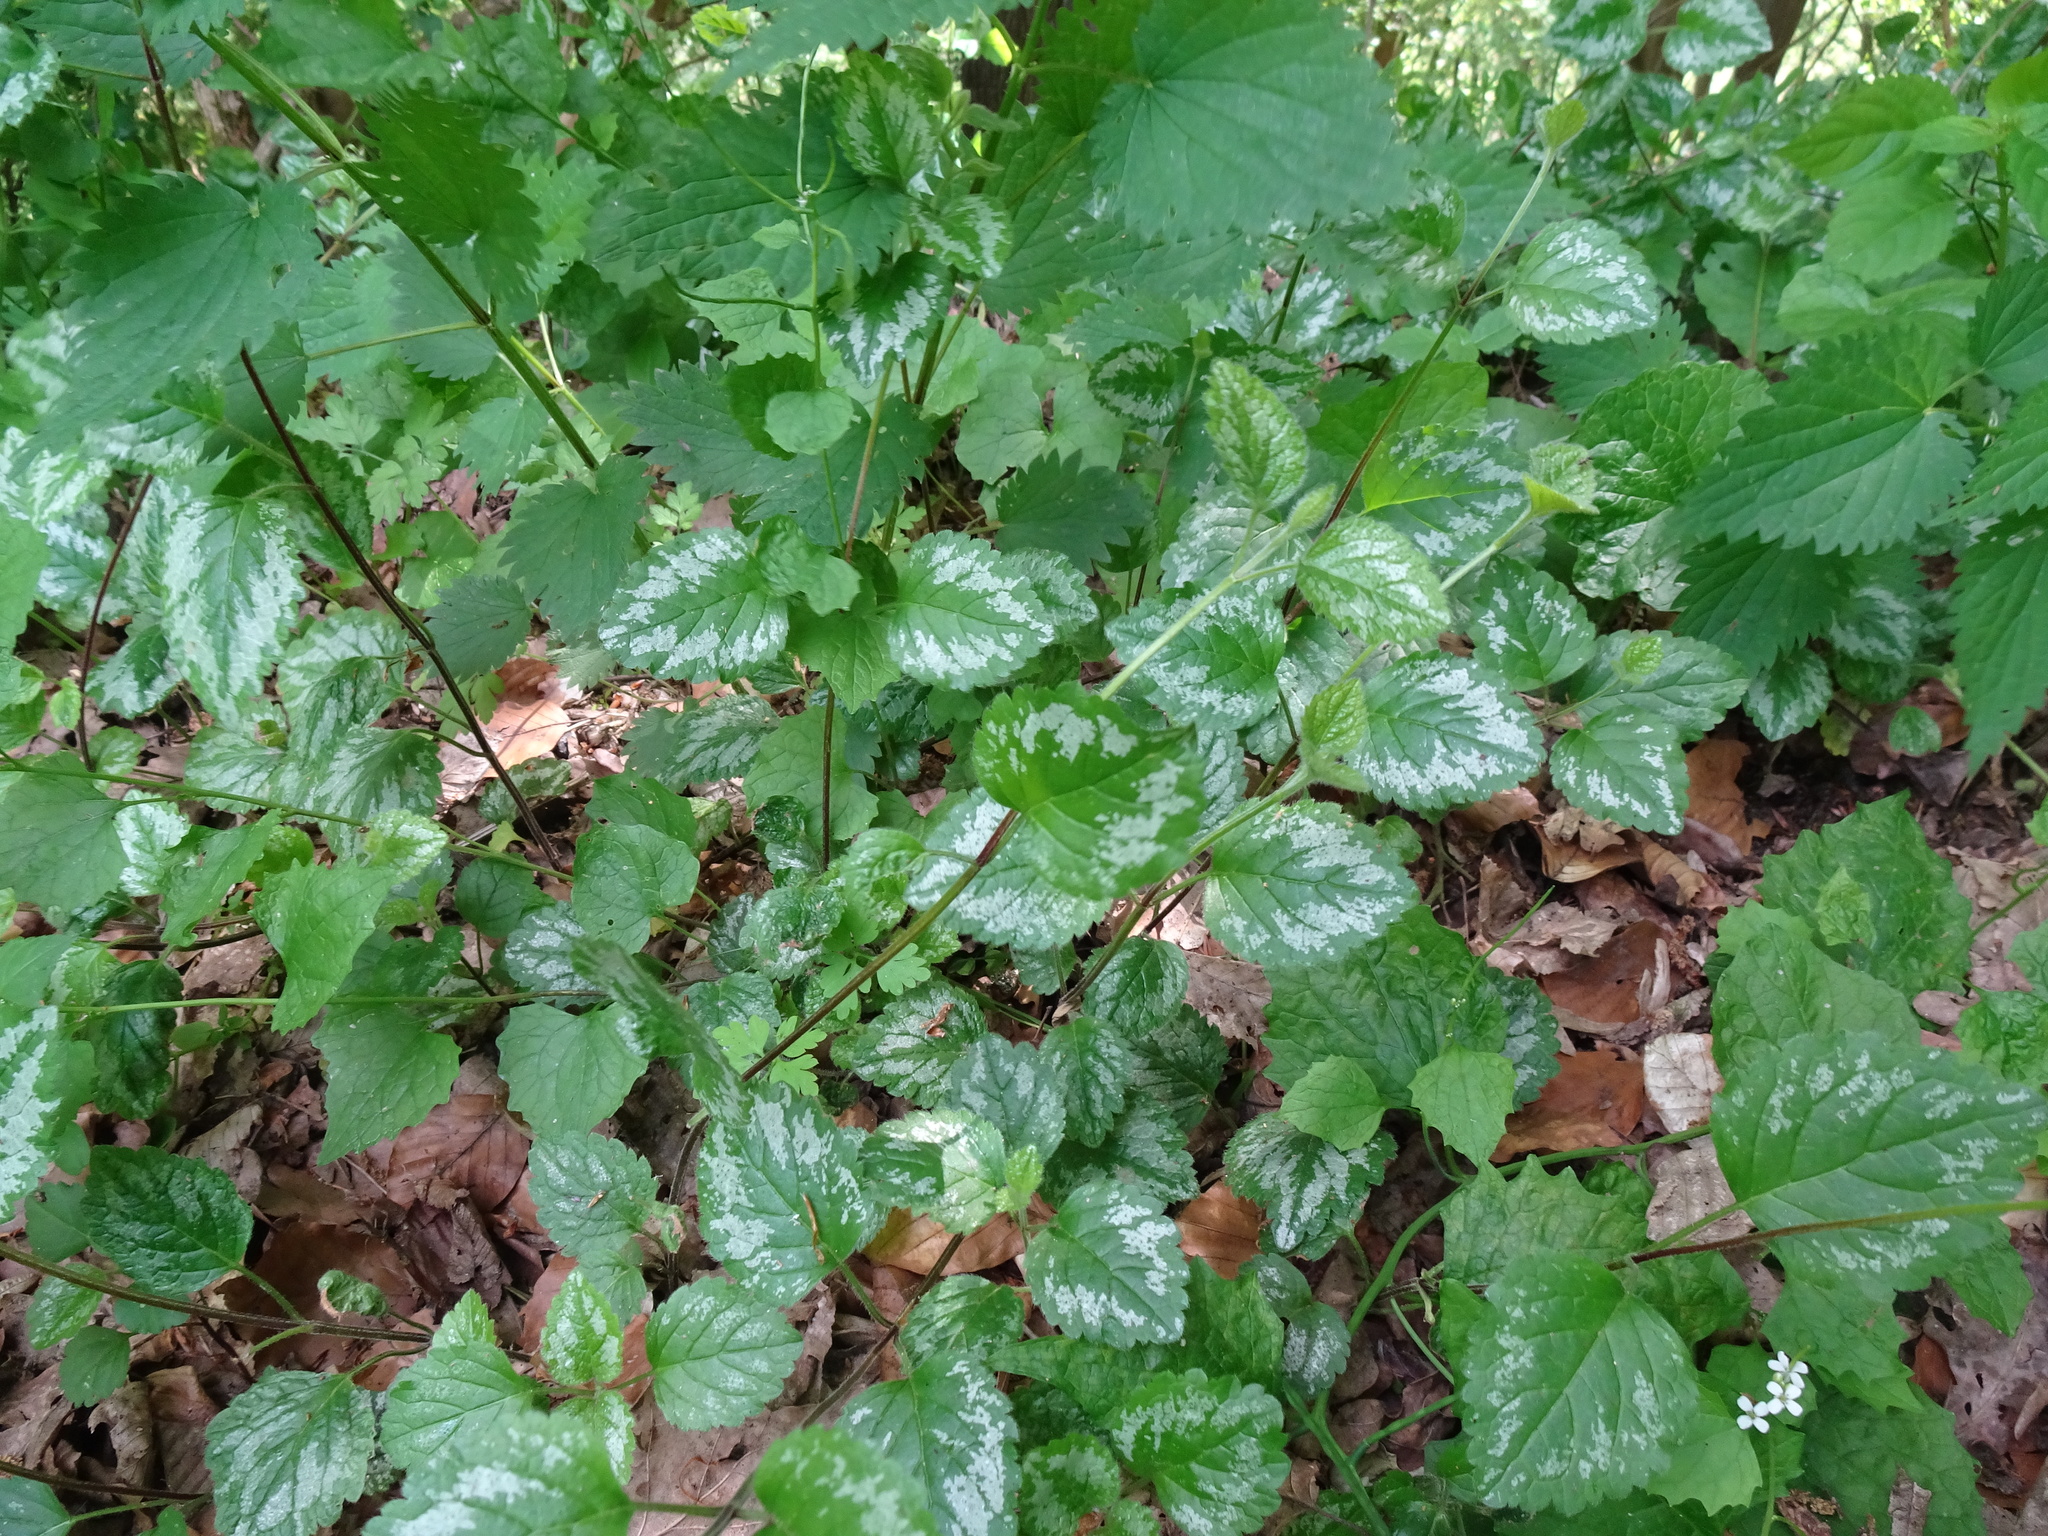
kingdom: Plantae
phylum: Tracheophyta
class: Magnoliopsida
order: Lamiales
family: Lamiaceae
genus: Lamium
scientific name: Lamium galeobdolon
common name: Yellow archangel
